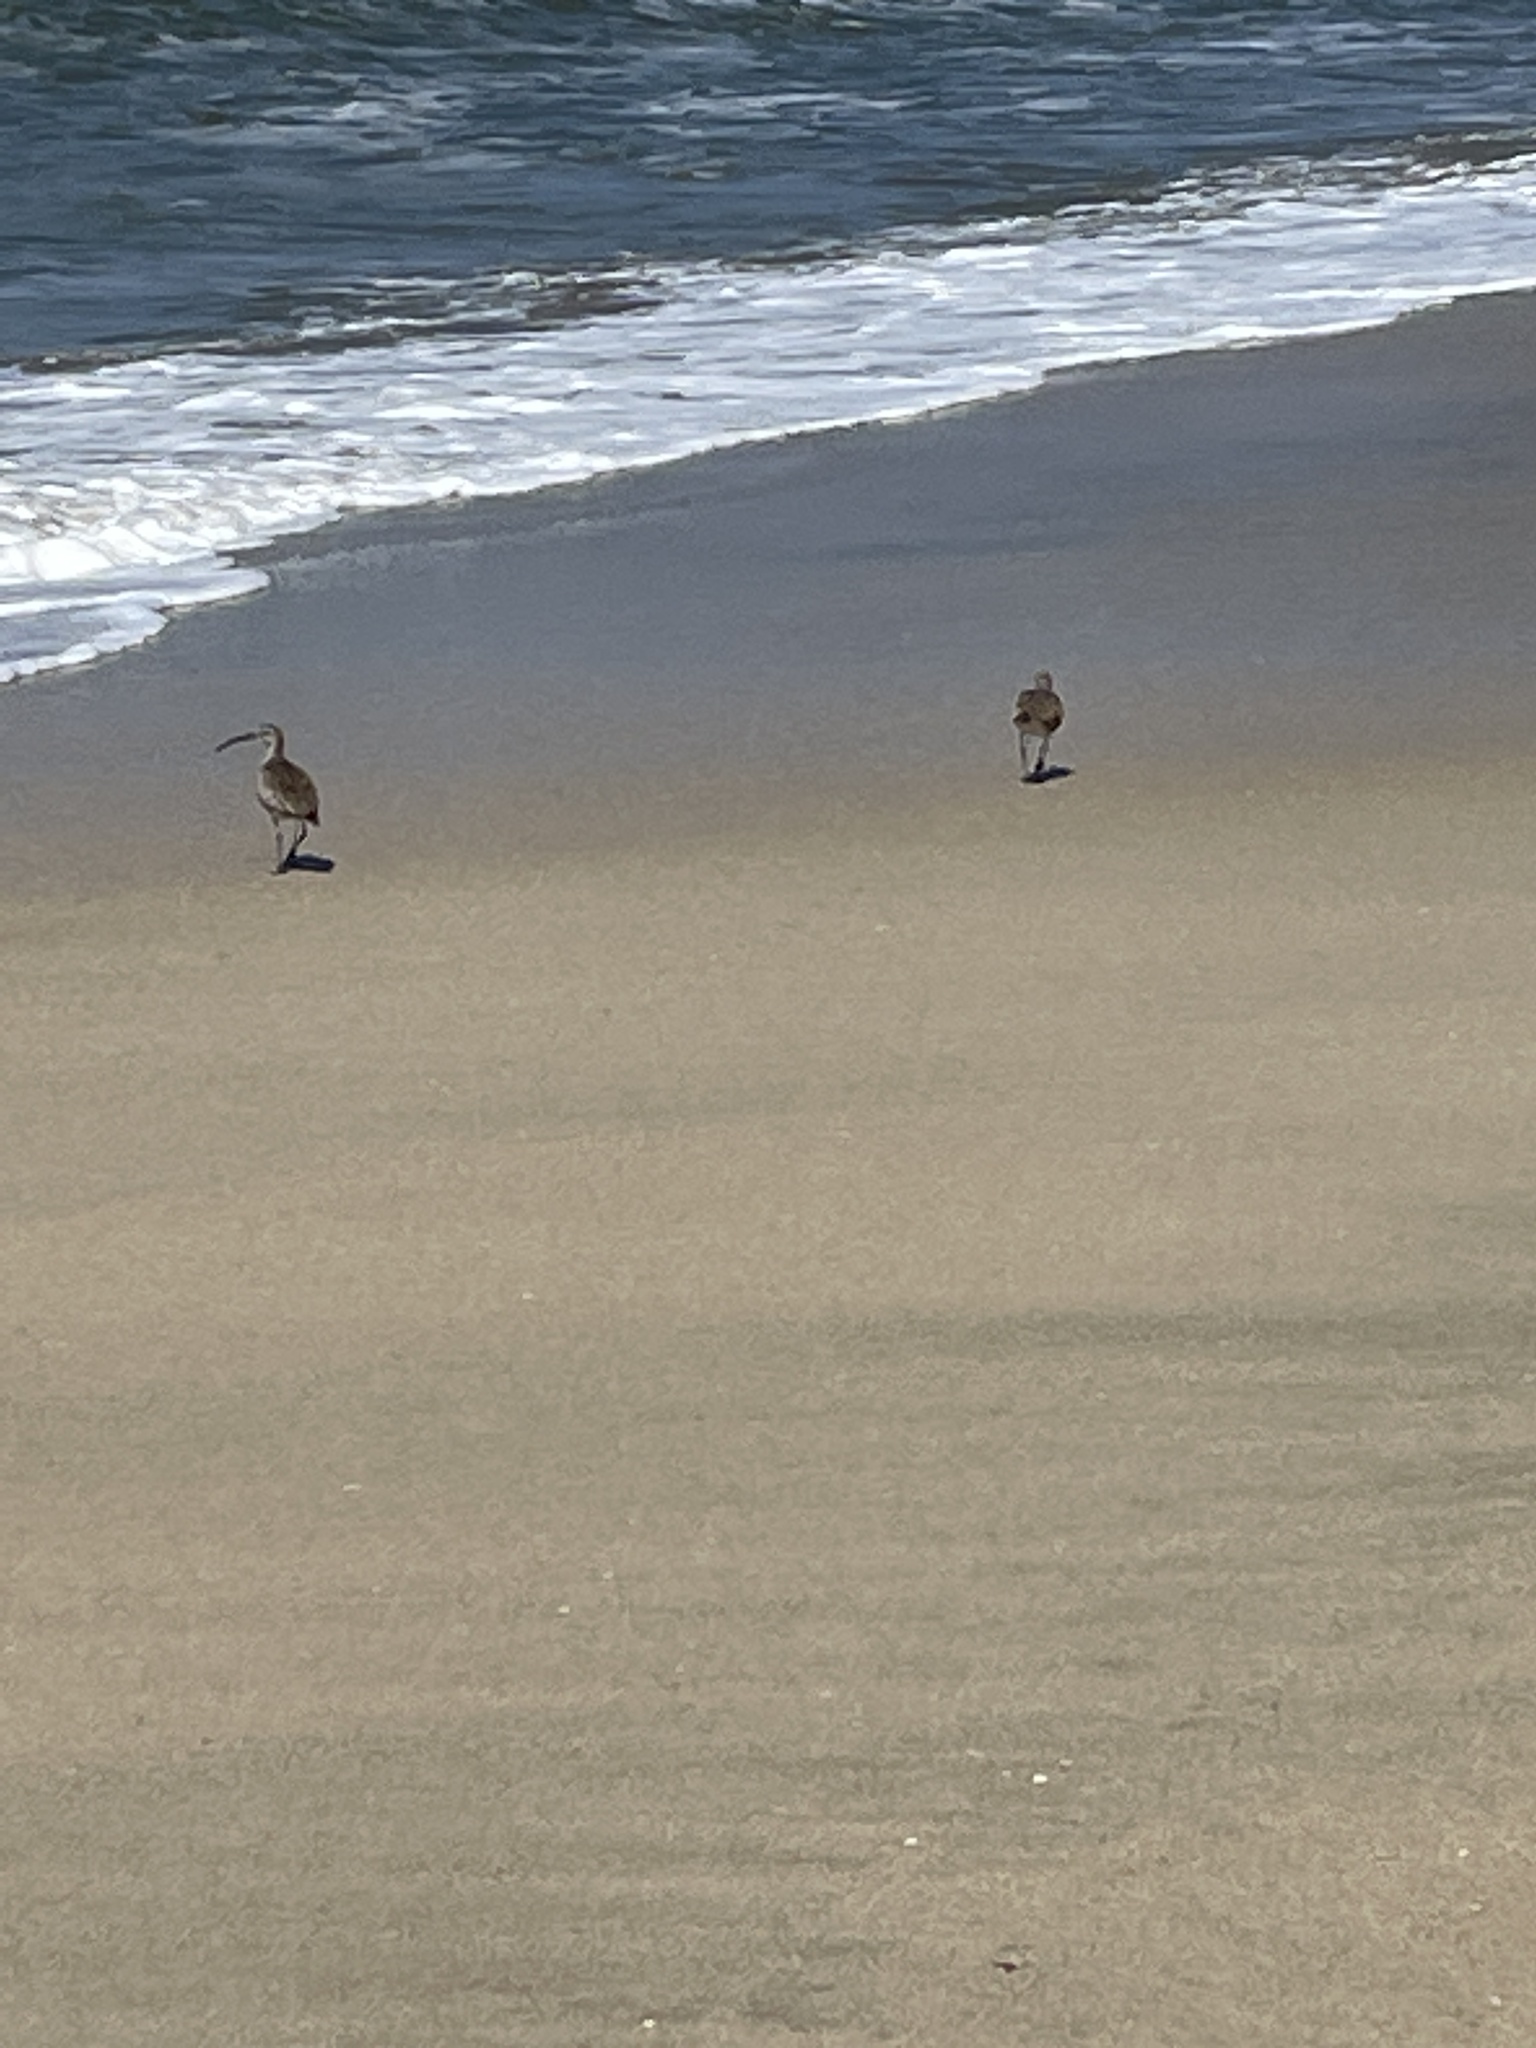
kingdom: Animalia
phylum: Chordata
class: Aves
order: Charadriiformes
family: Scolopacidae
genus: Numenius
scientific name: Numenius phaeopus
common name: Whimbrel
